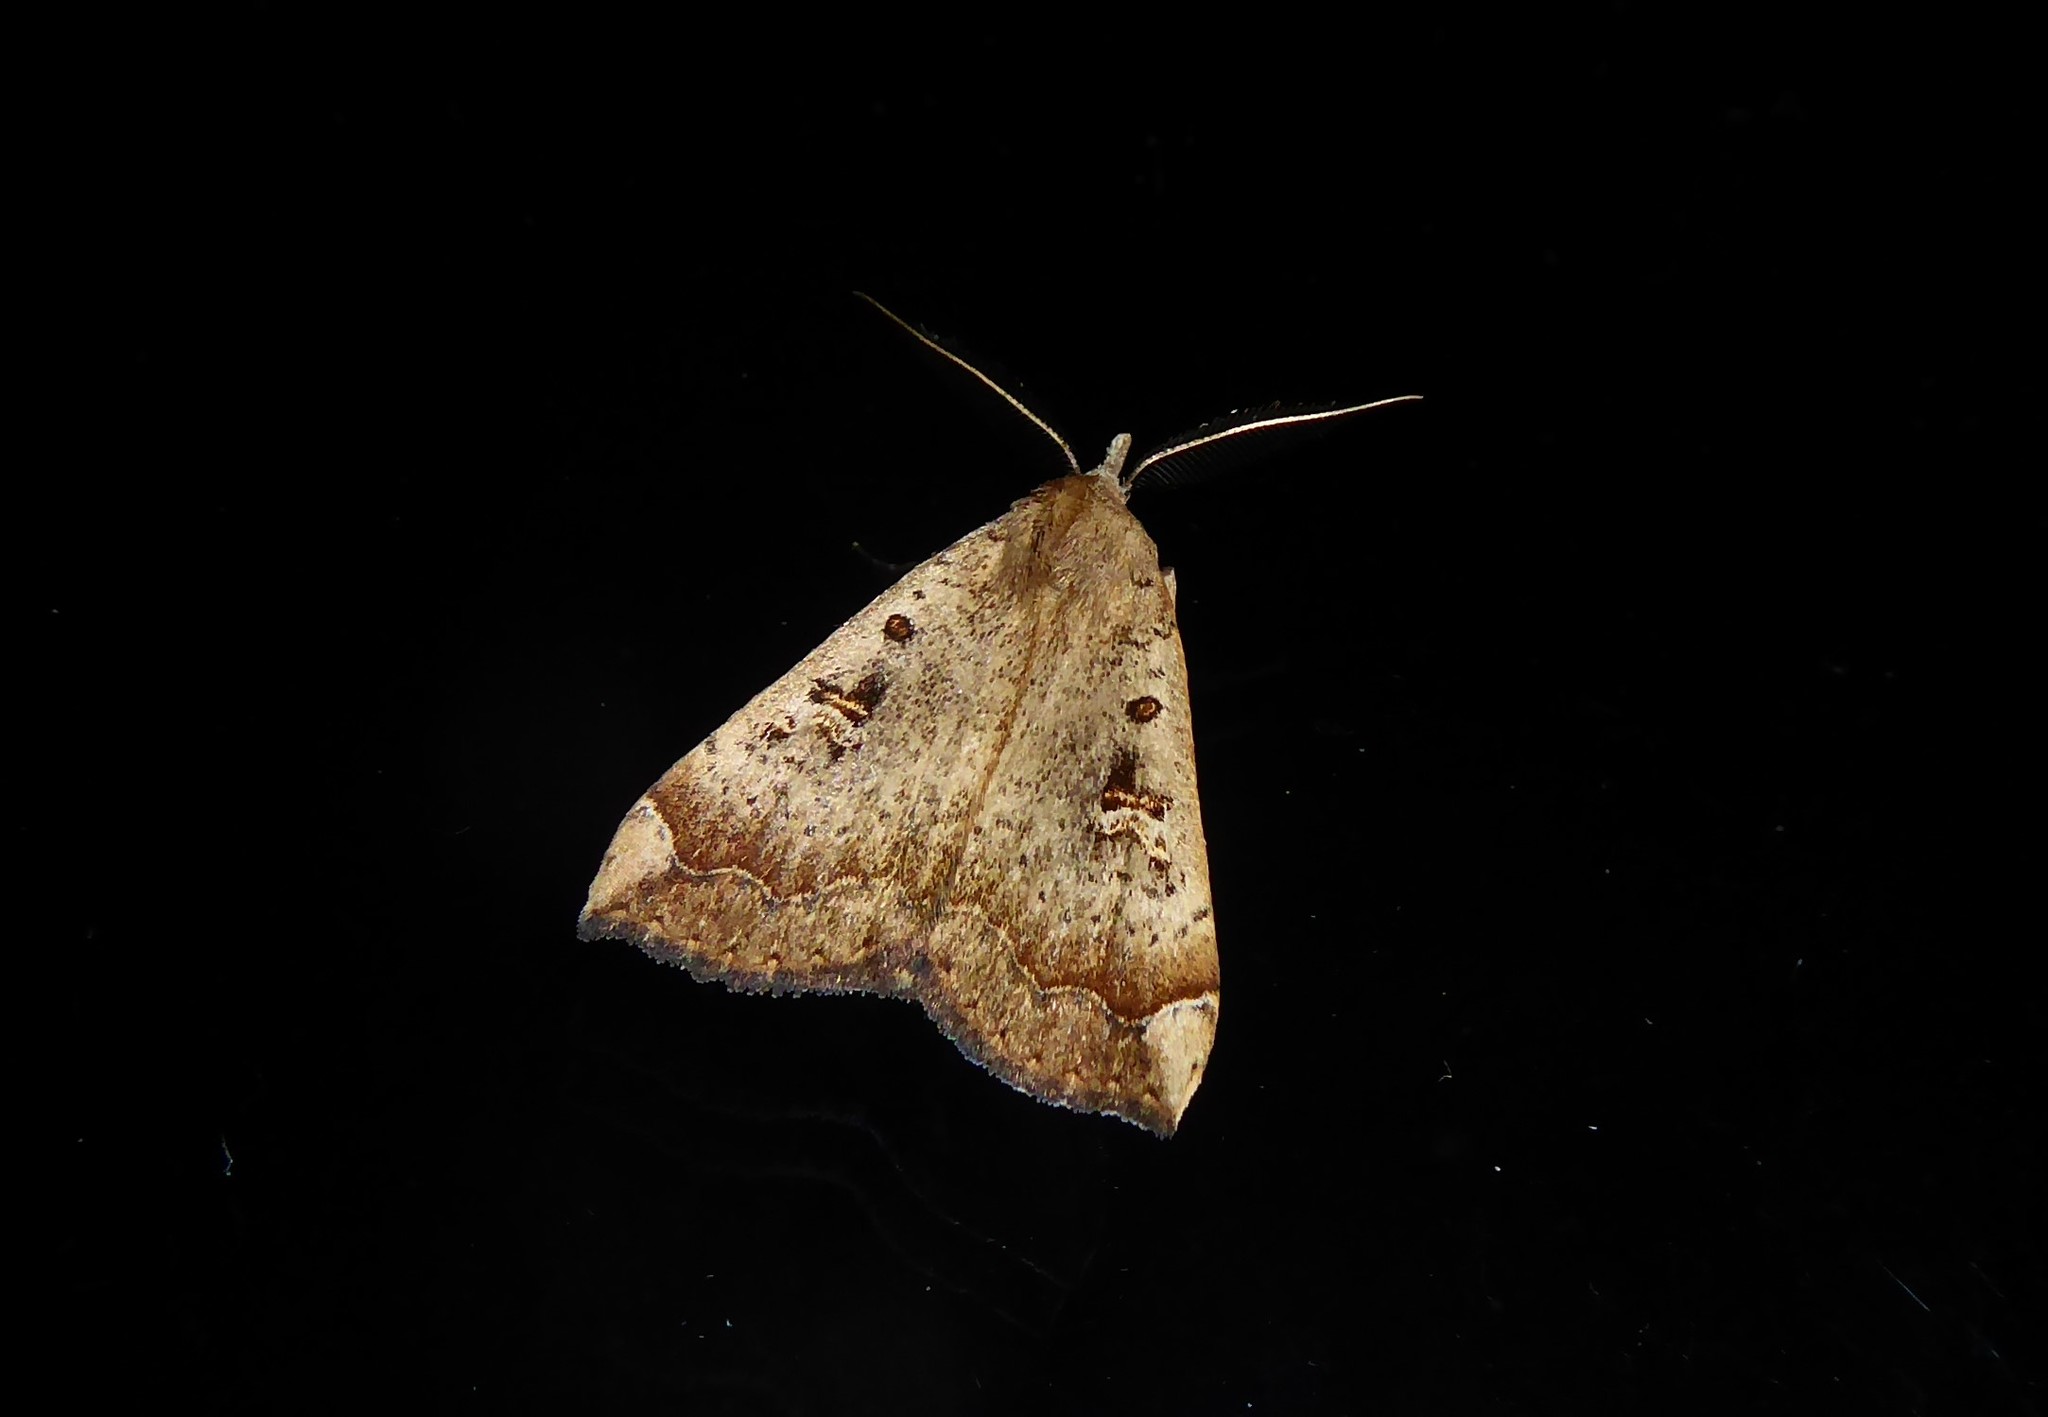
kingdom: Animalia
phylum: Arthropoda
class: Insecta
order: Lepidoptera
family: Erebidae
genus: Rhapsa
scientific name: Rhapsa scotosialis
